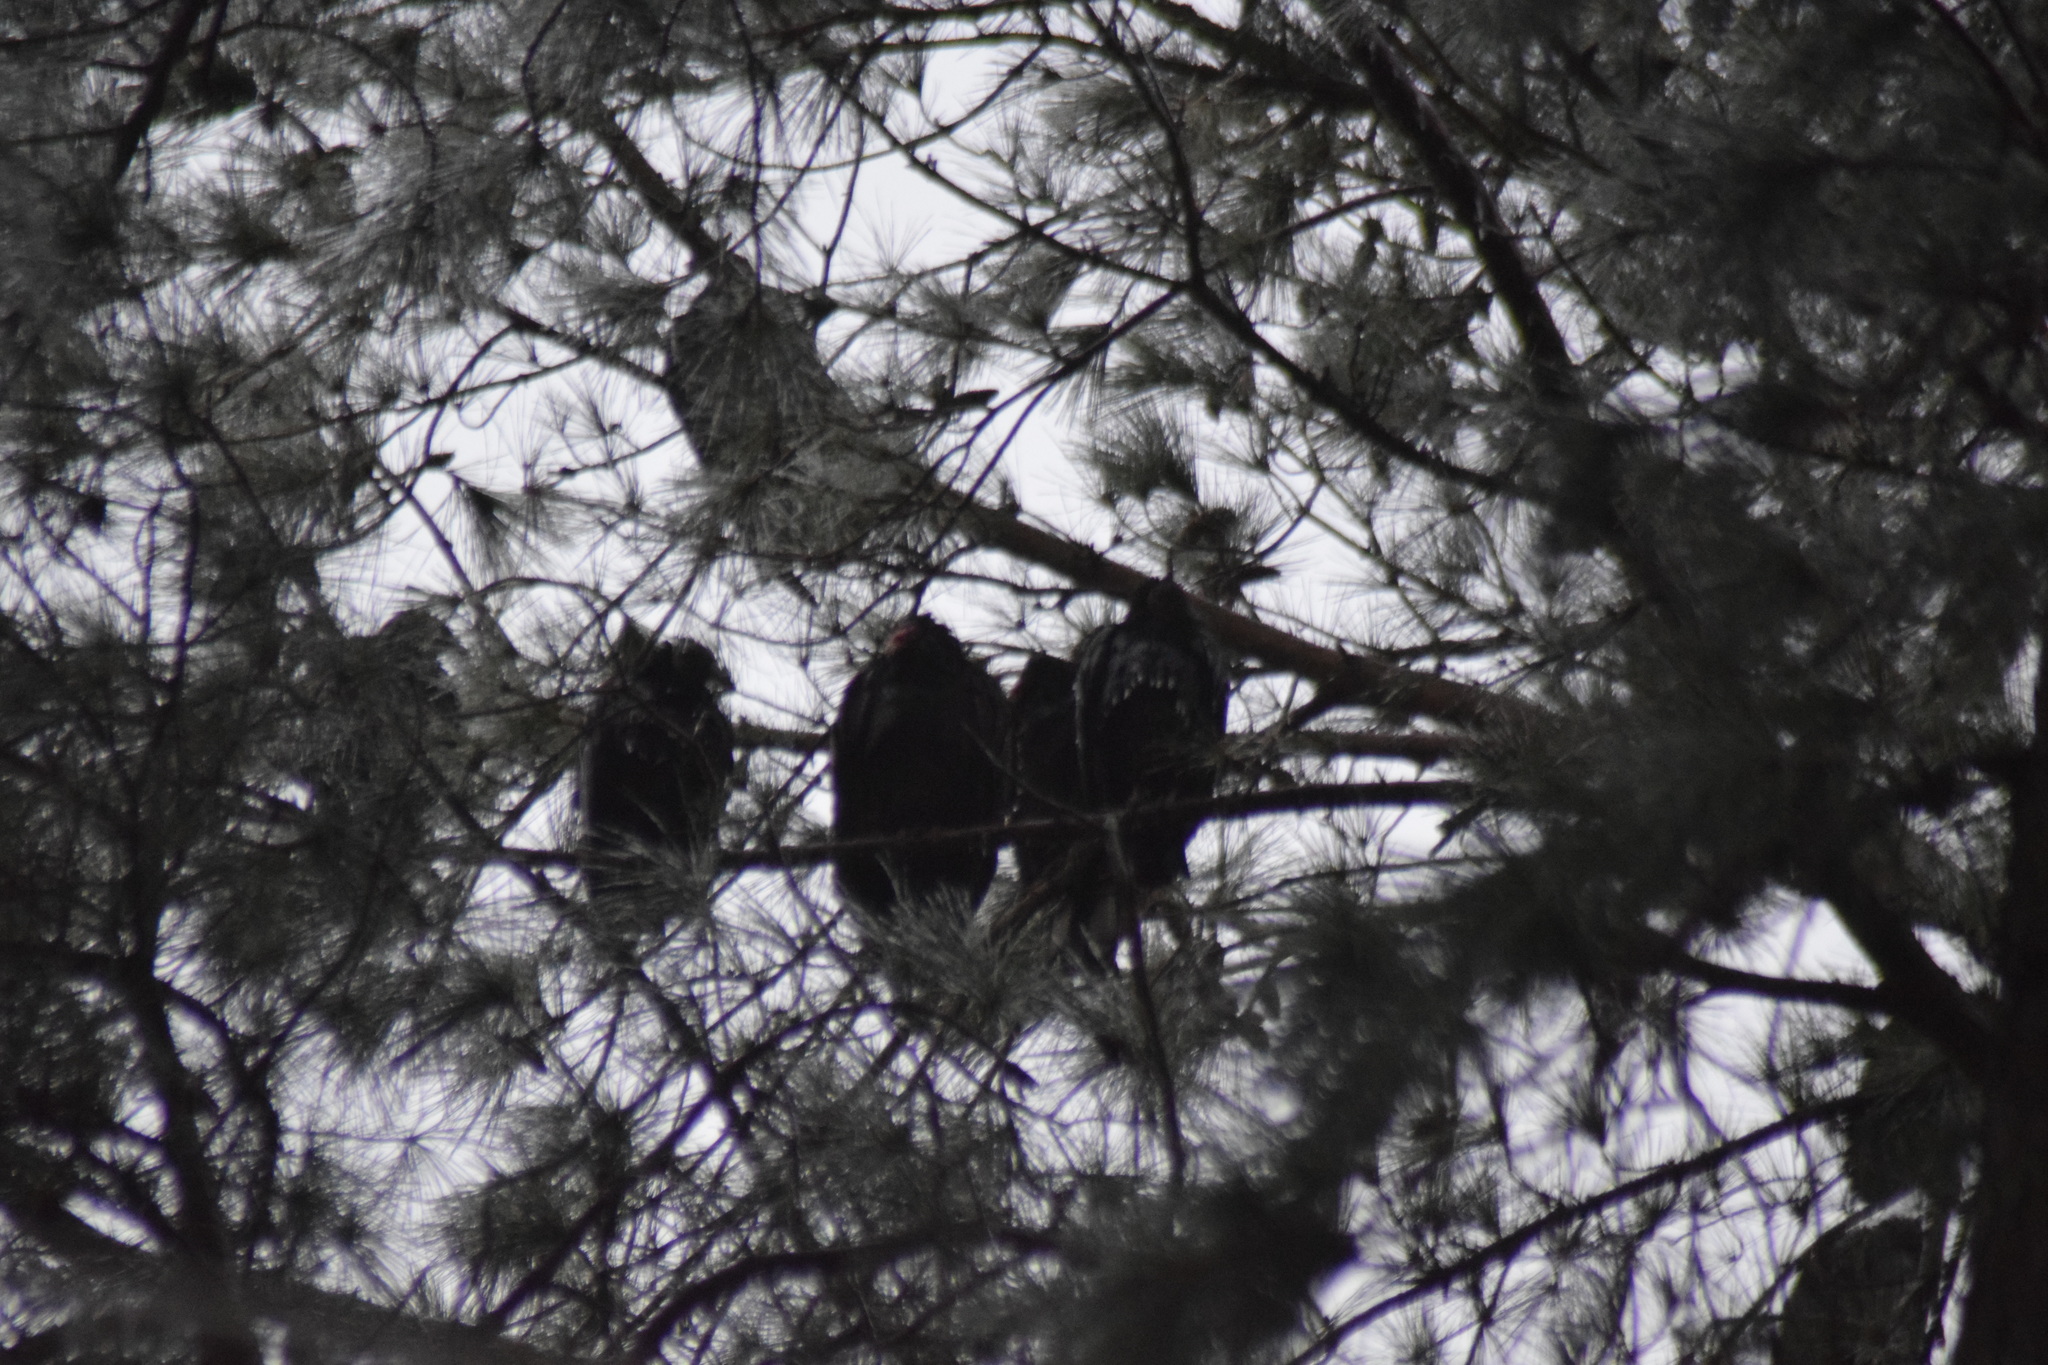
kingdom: Animalia
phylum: Chordata
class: Aves
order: Accipitriformes
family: Cathartidae
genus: Cathartes
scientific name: Cathartes aura
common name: Turkey vulture
